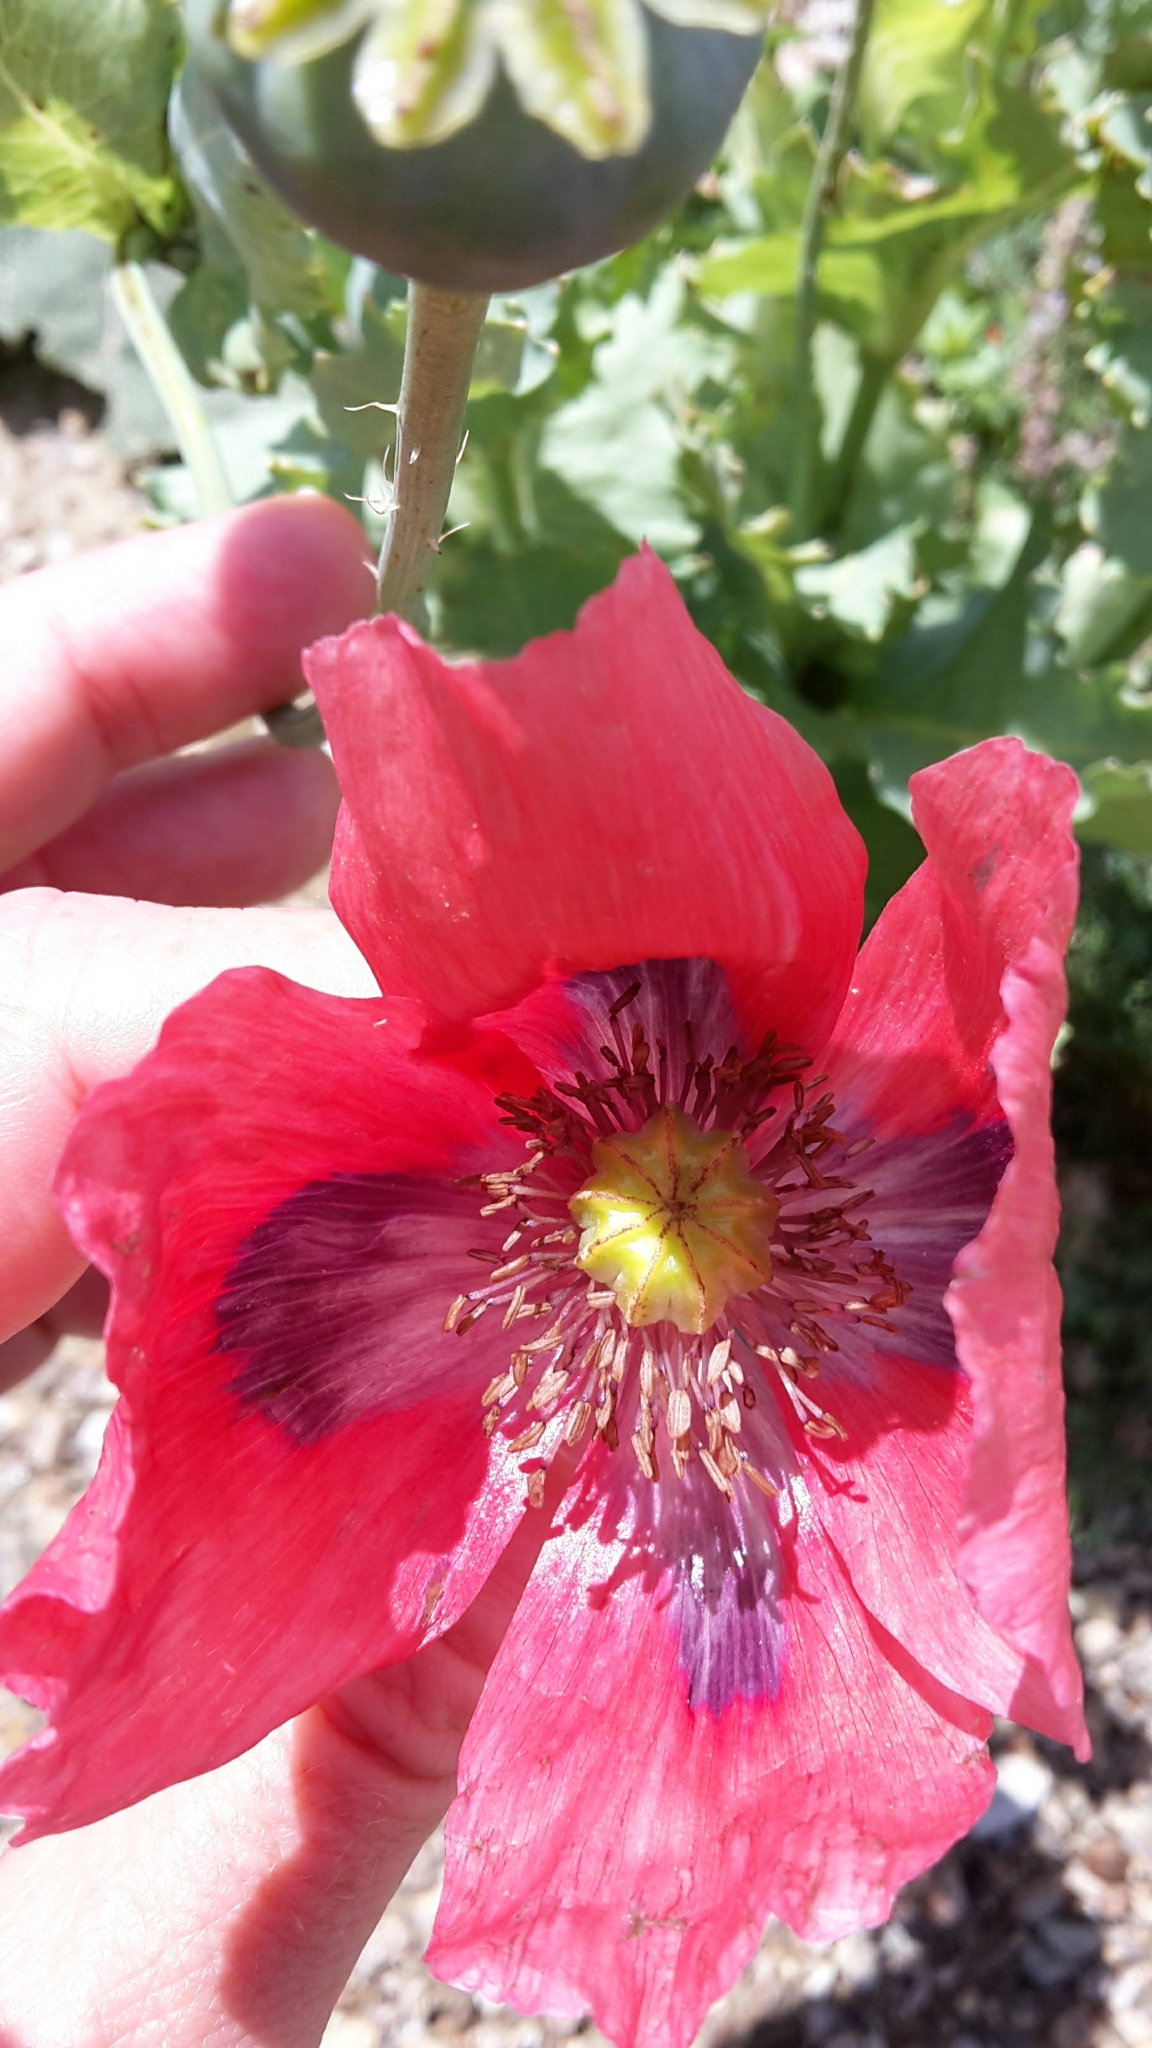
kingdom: Plantae
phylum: Tracheophyta
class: Magnoliopsida
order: Ranunculales
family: Papaveraceae
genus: Papaver
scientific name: Papaver somniferum
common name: Opium poppy
